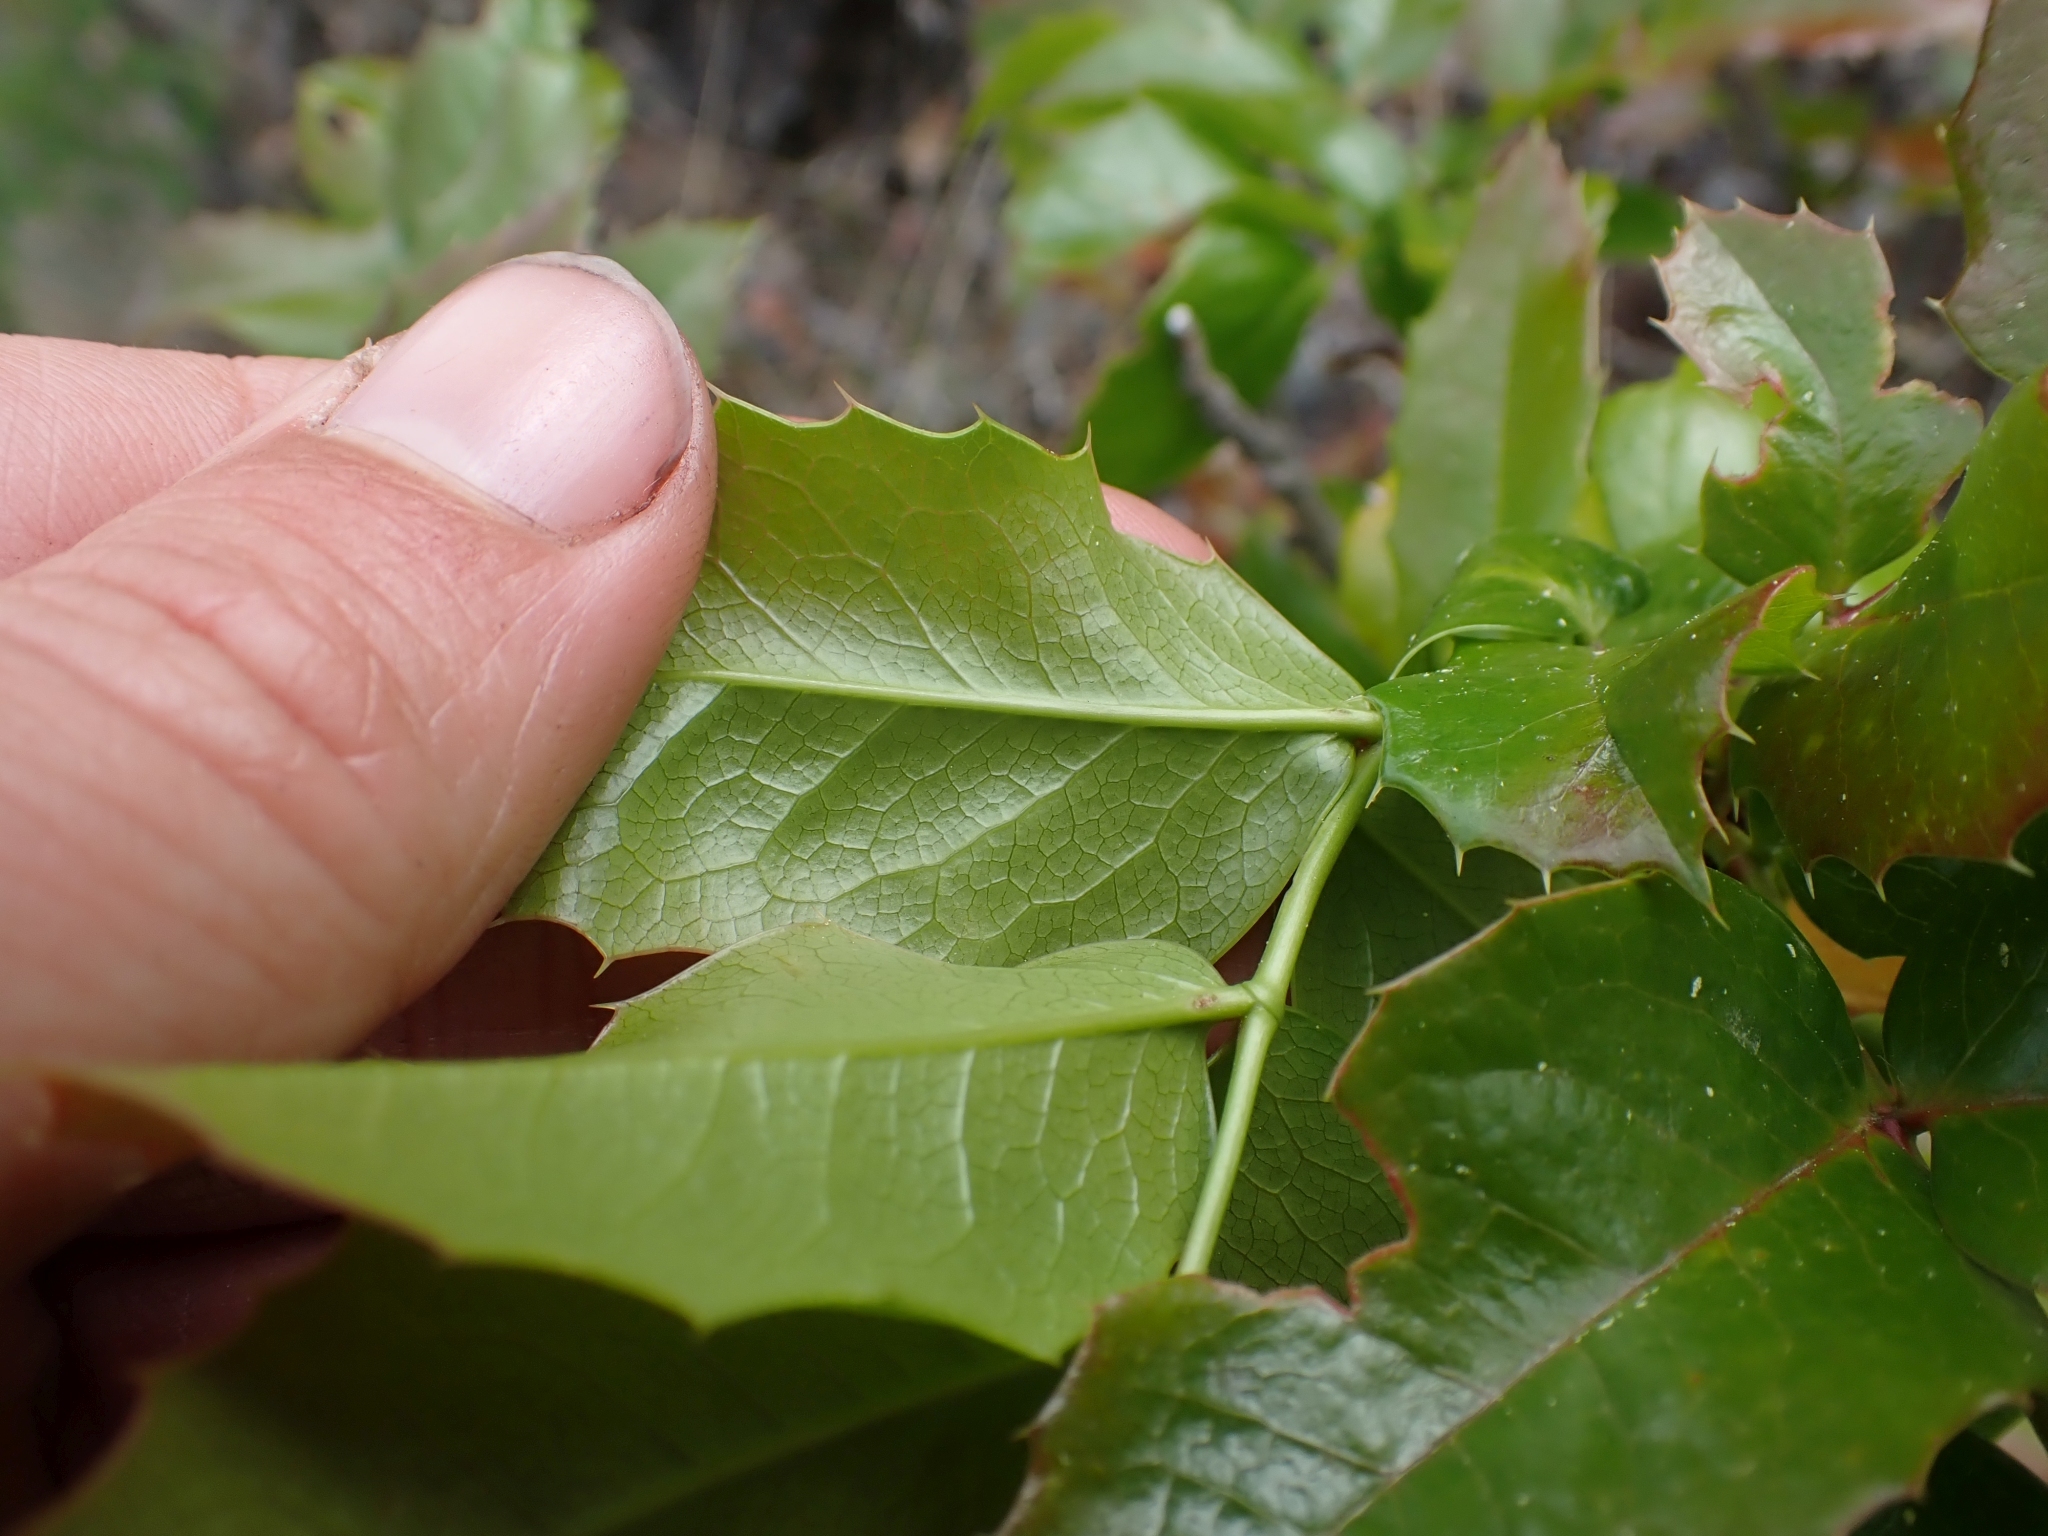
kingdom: Plantae
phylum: Tracheophyta
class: Magnoliopsida
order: Ranunculales
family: Berberidaceae
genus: Mahonia
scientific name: Mahonia aquifolium
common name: Oregon-grape
